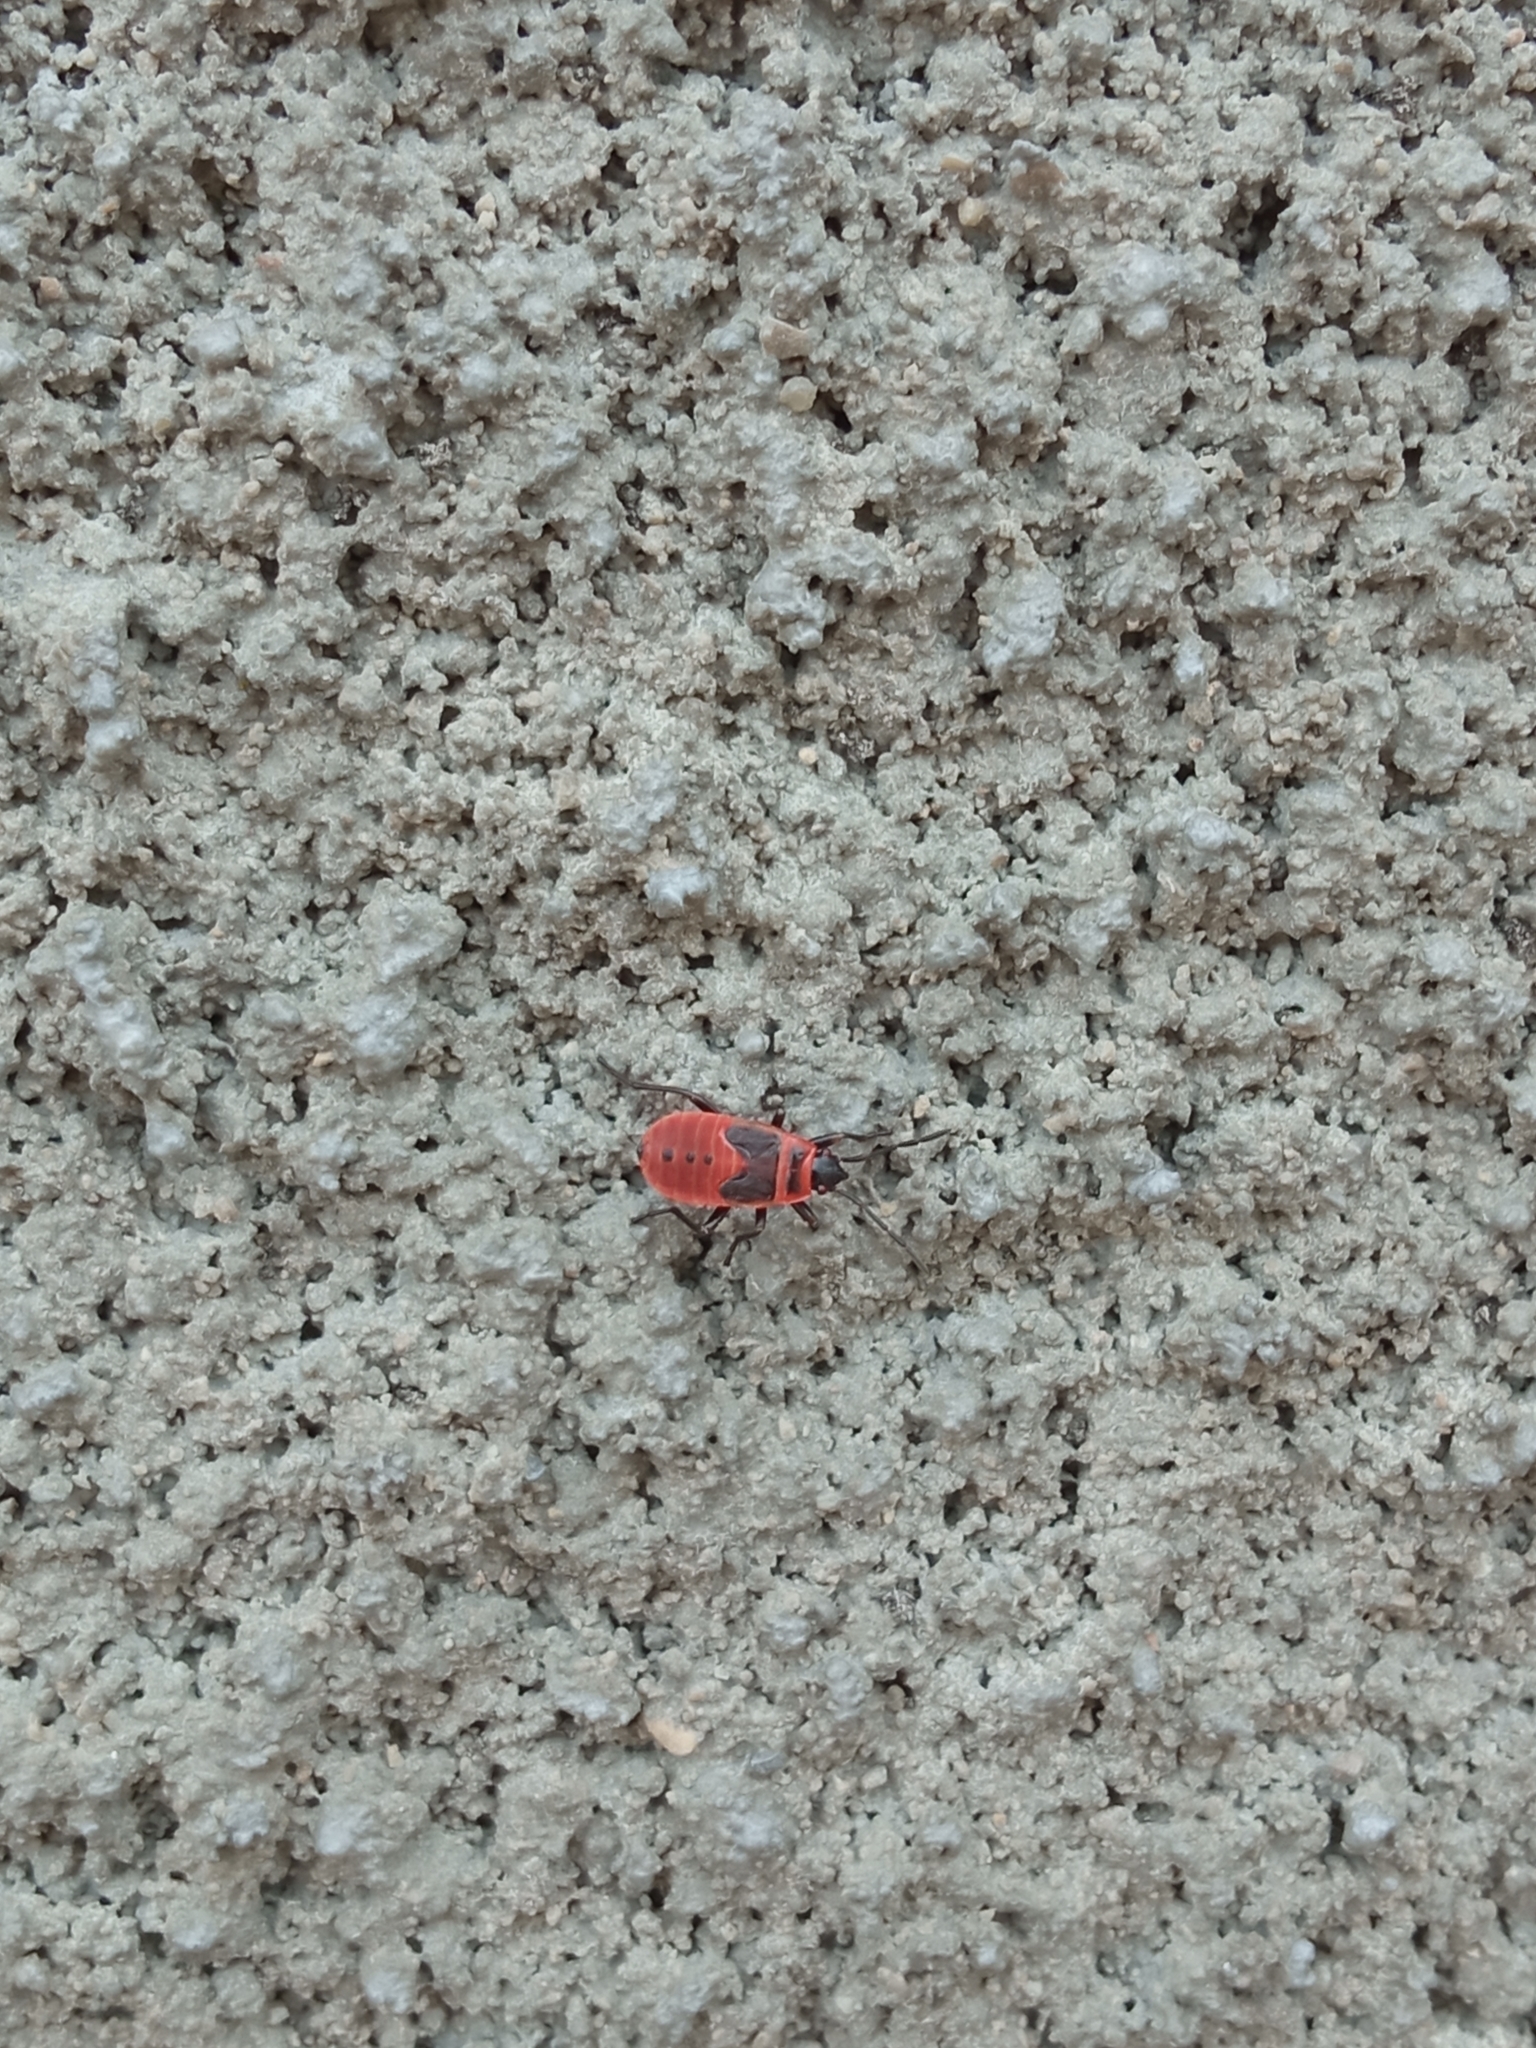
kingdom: Animalia
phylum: Arthropoda
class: Insecta
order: Hemiptera
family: Pyrrhocoridae
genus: Pyrrhocoris
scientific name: Pyrrhocoris apterus
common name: Firebug
